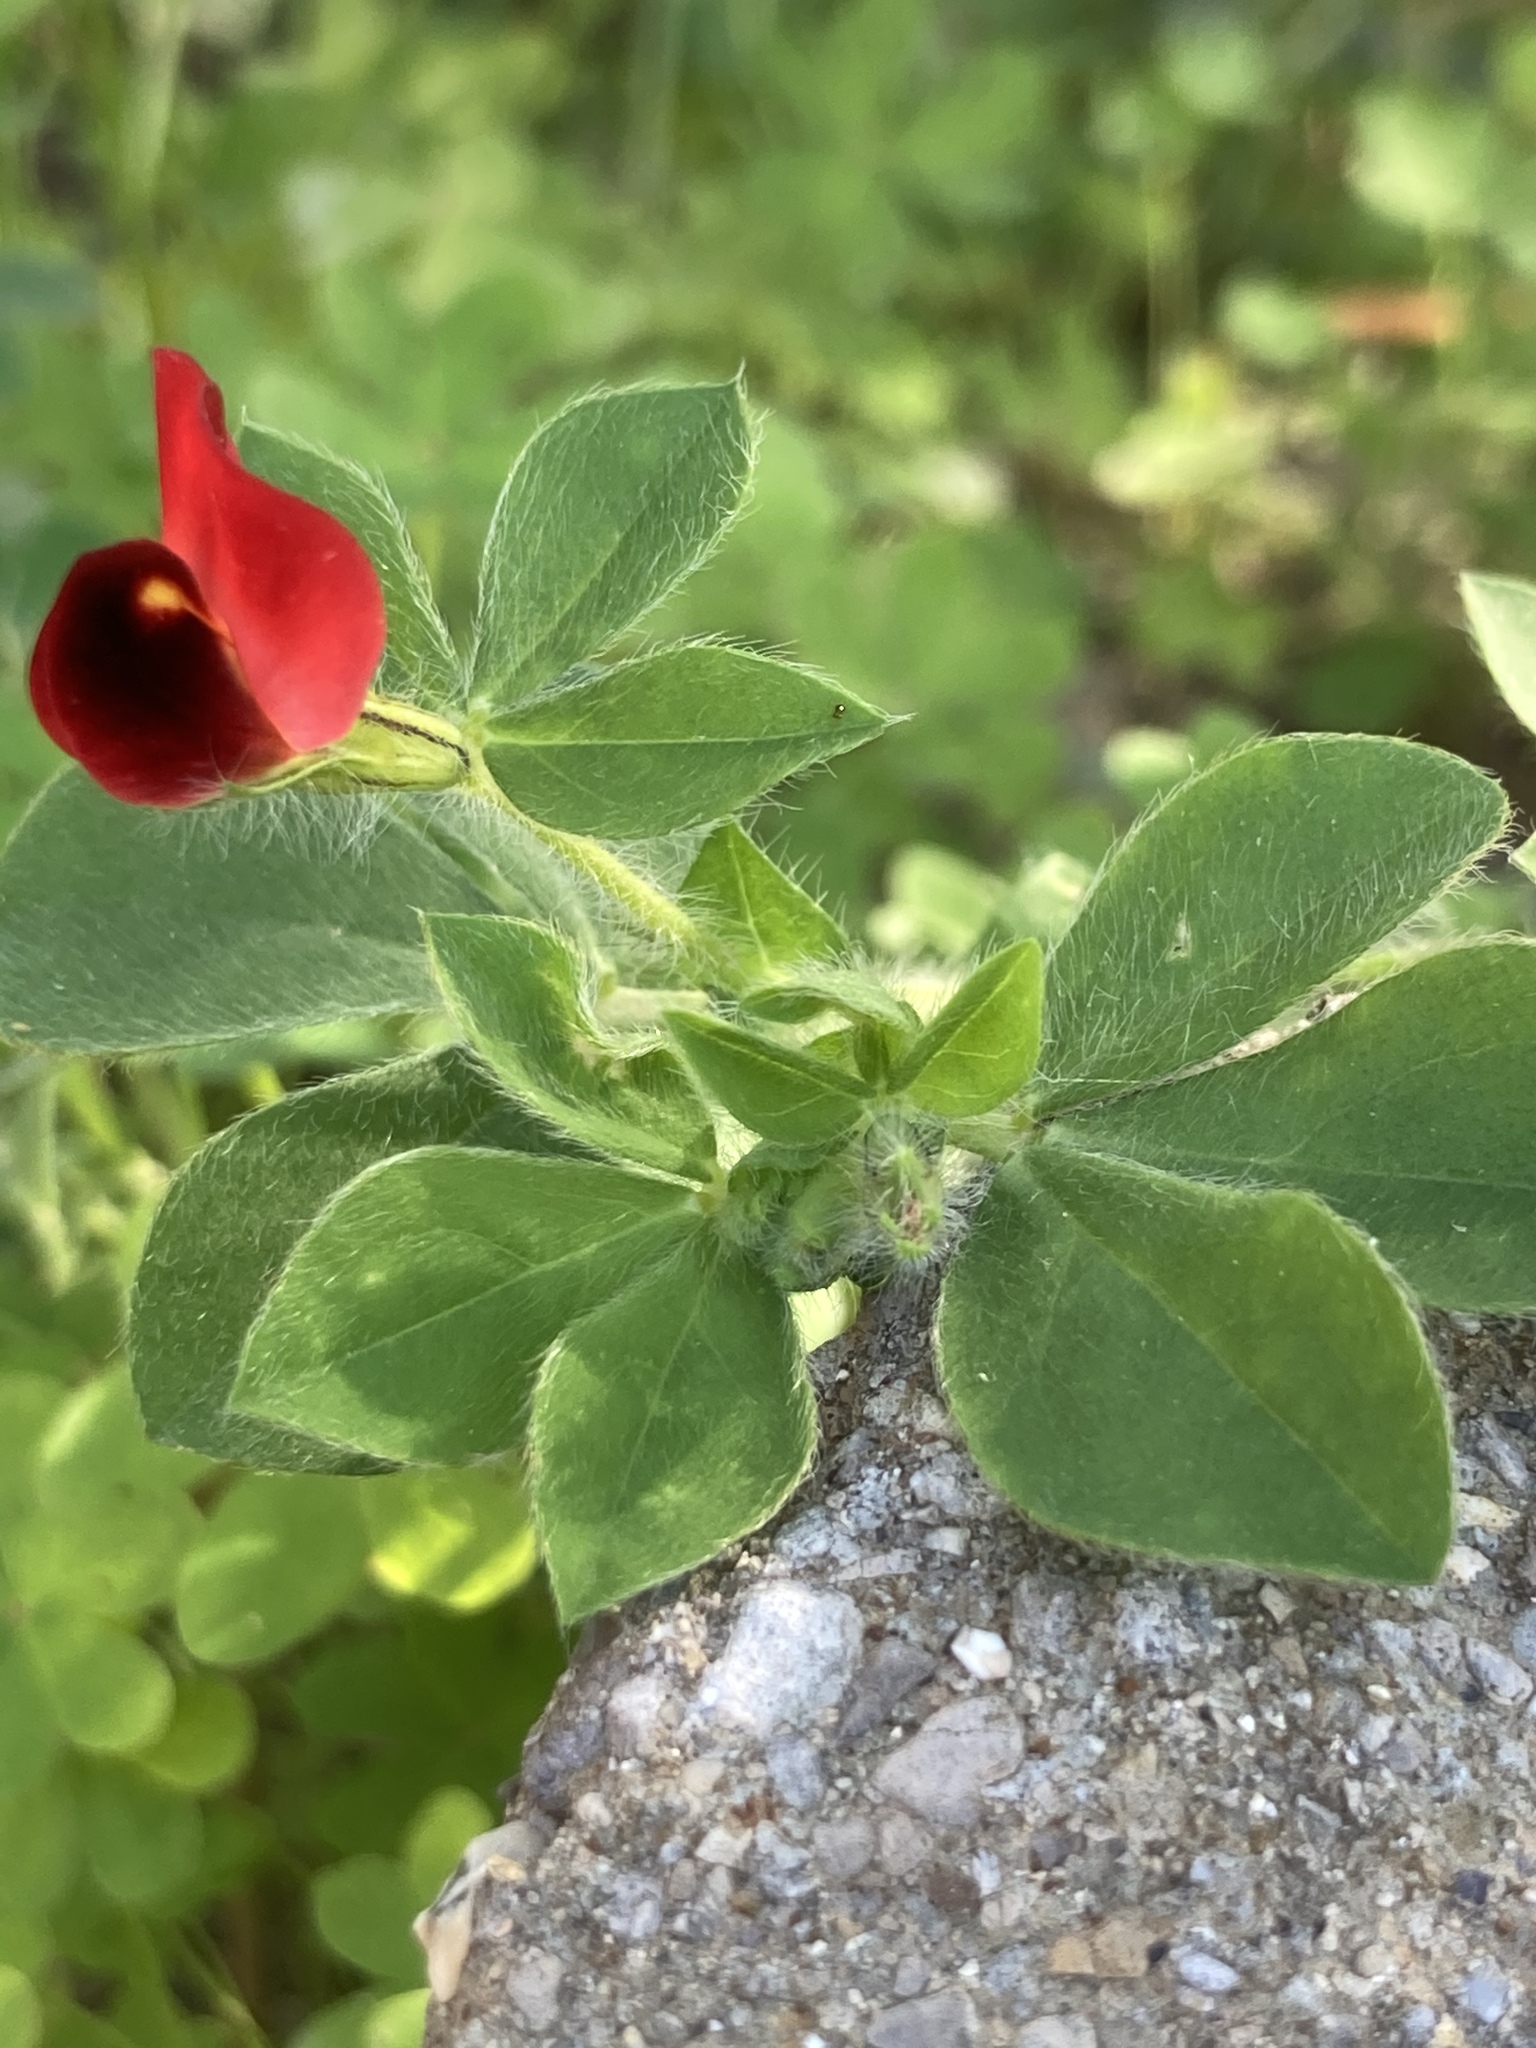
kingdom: Plantae
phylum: Tracheophyta
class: Magnoliopsida
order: Fabales
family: Fabaceae
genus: Lotus
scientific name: Lotus tetragonolobus
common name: Asparagus-pea
